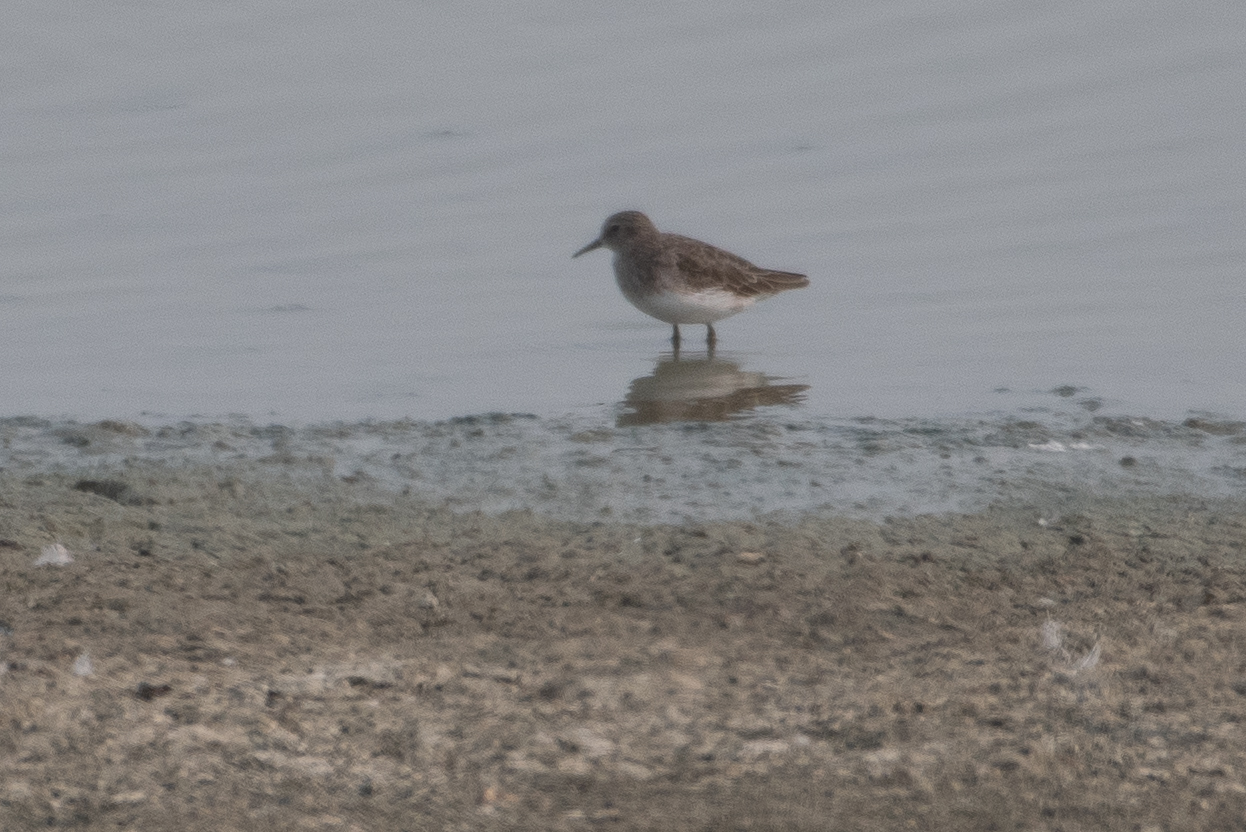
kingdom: Animalia
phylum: Chordata
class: Aves
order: Charadriiformes
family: Scolopacidae
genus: Calidris
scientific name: Calidris minutilla
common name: Least sandpiper
